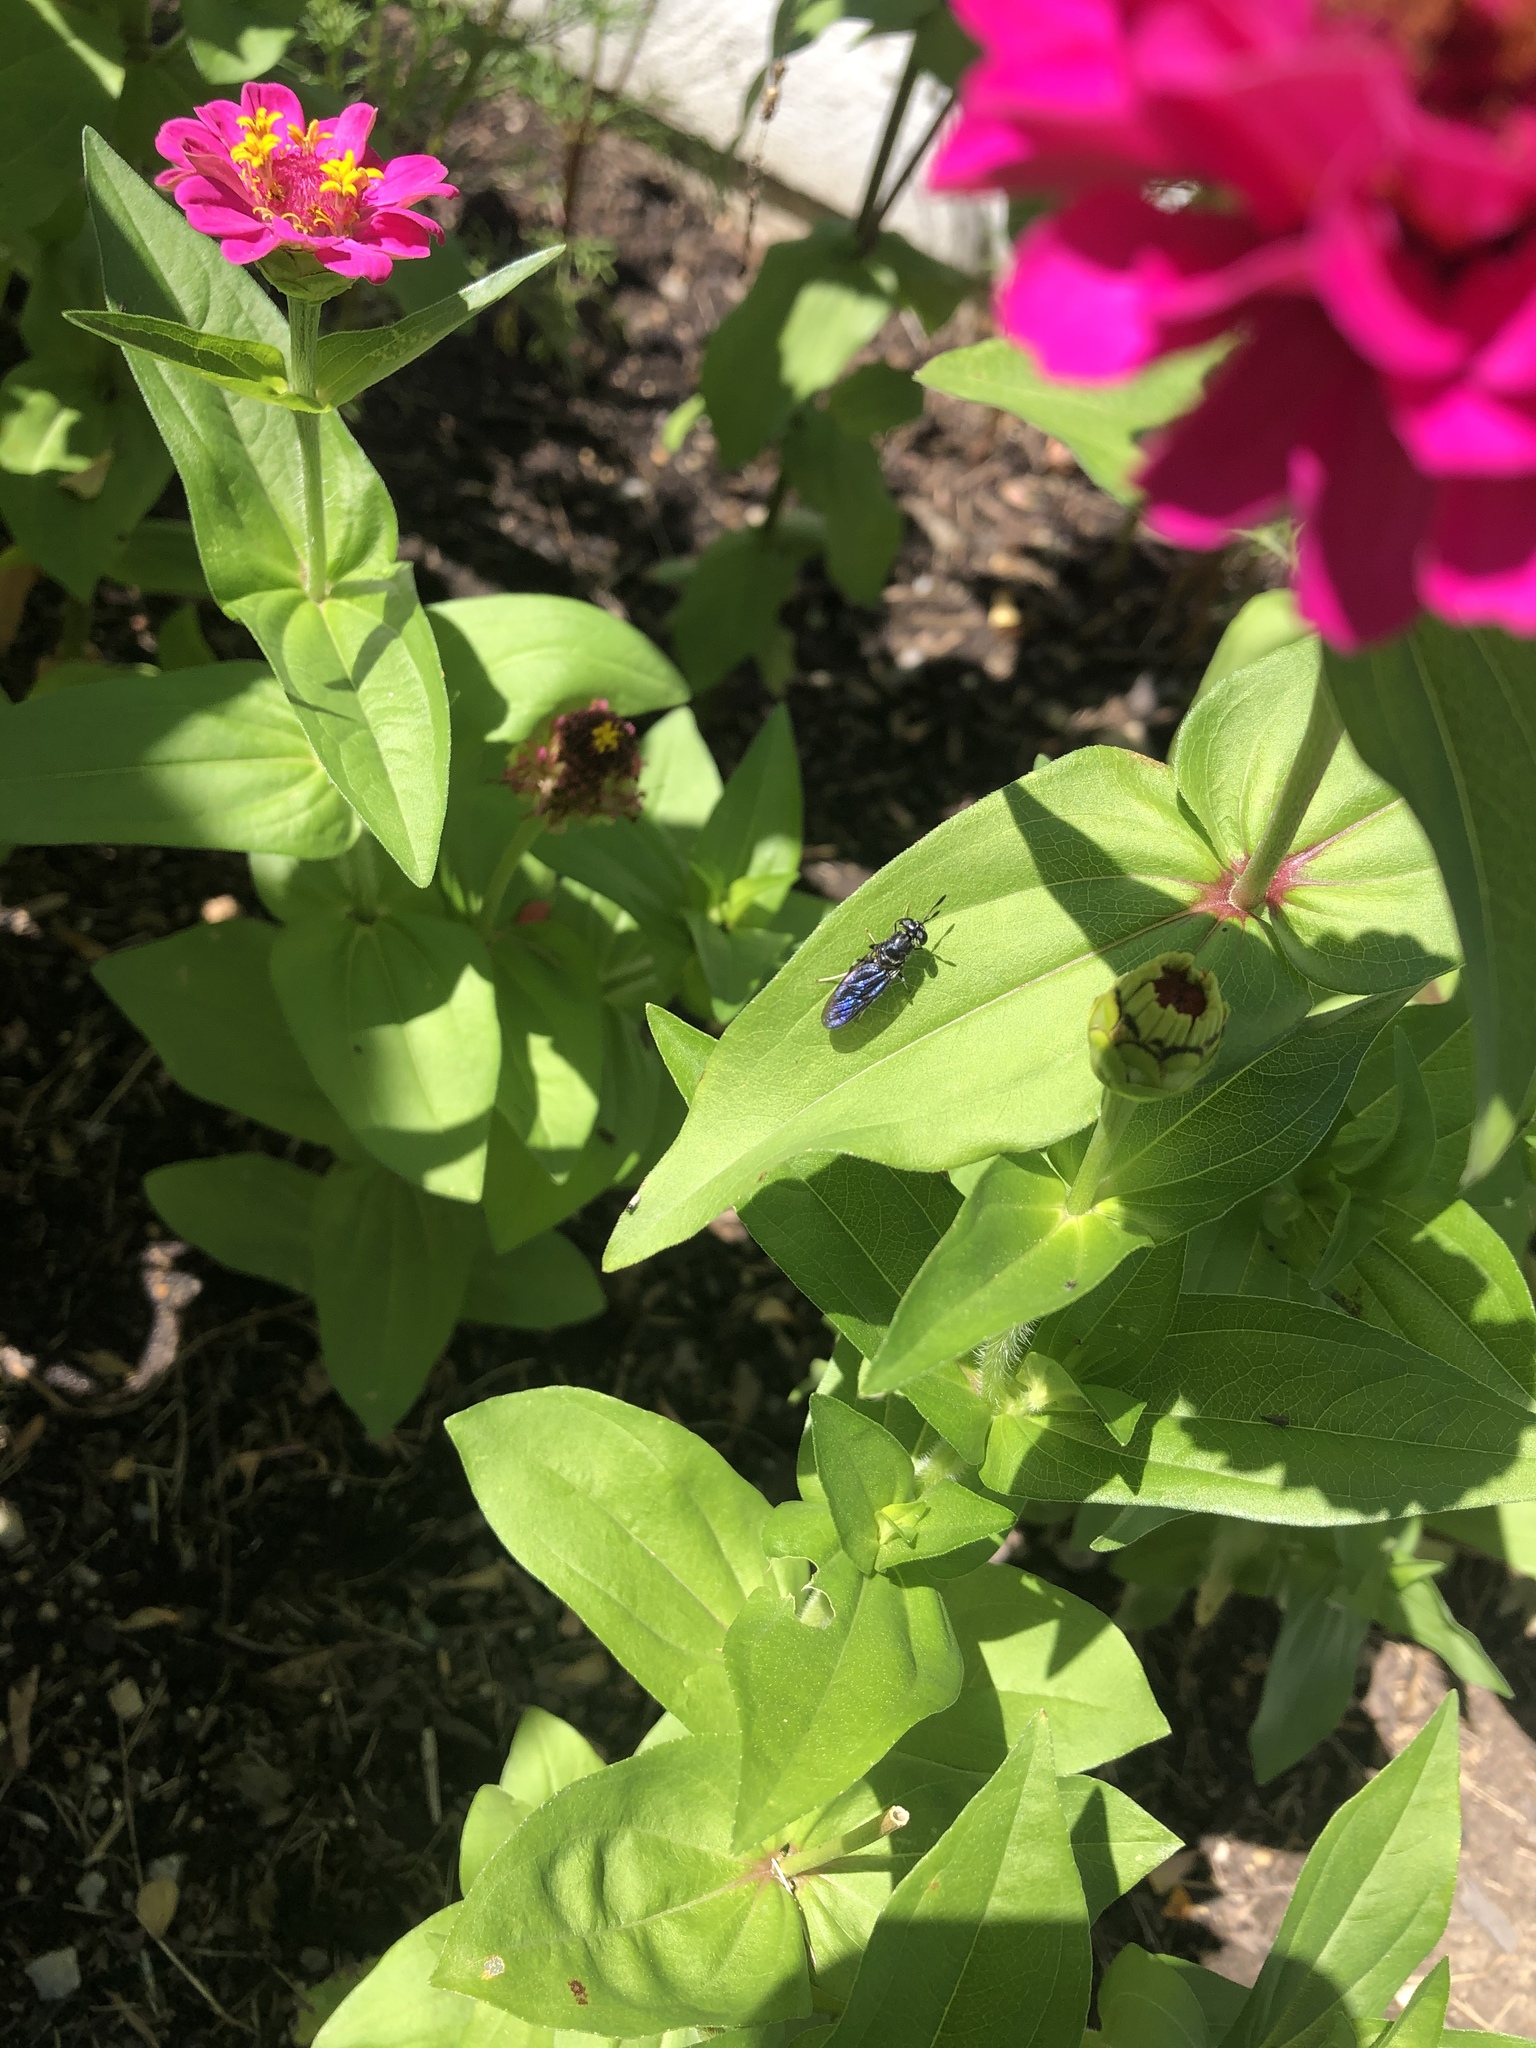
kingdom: Animalia
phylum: Arthropoda
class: Insecta
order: Diptera
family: Stratiomyidae
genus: Hermetia
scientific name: Hermetia illucens
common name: Black soldier fly
